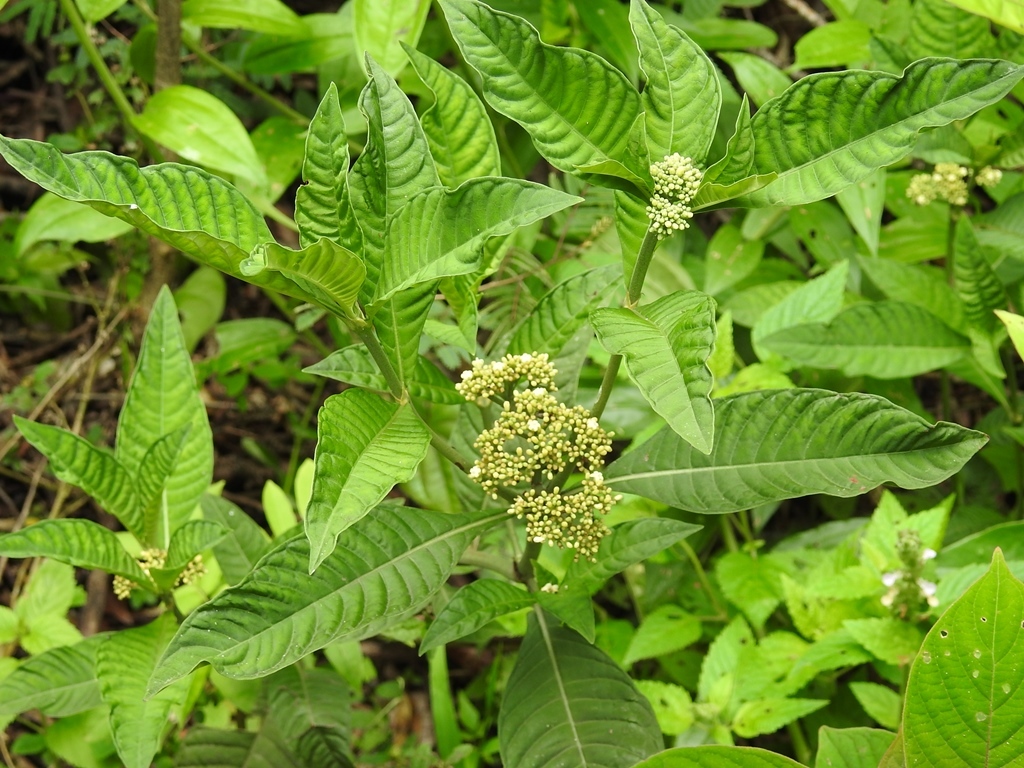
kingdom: Plantae
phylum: Tracheophyta
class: Magnoliopsida
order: Gentianales
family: Rubiaceae
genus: Psychotria
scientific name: Psychotria tenuifolia
